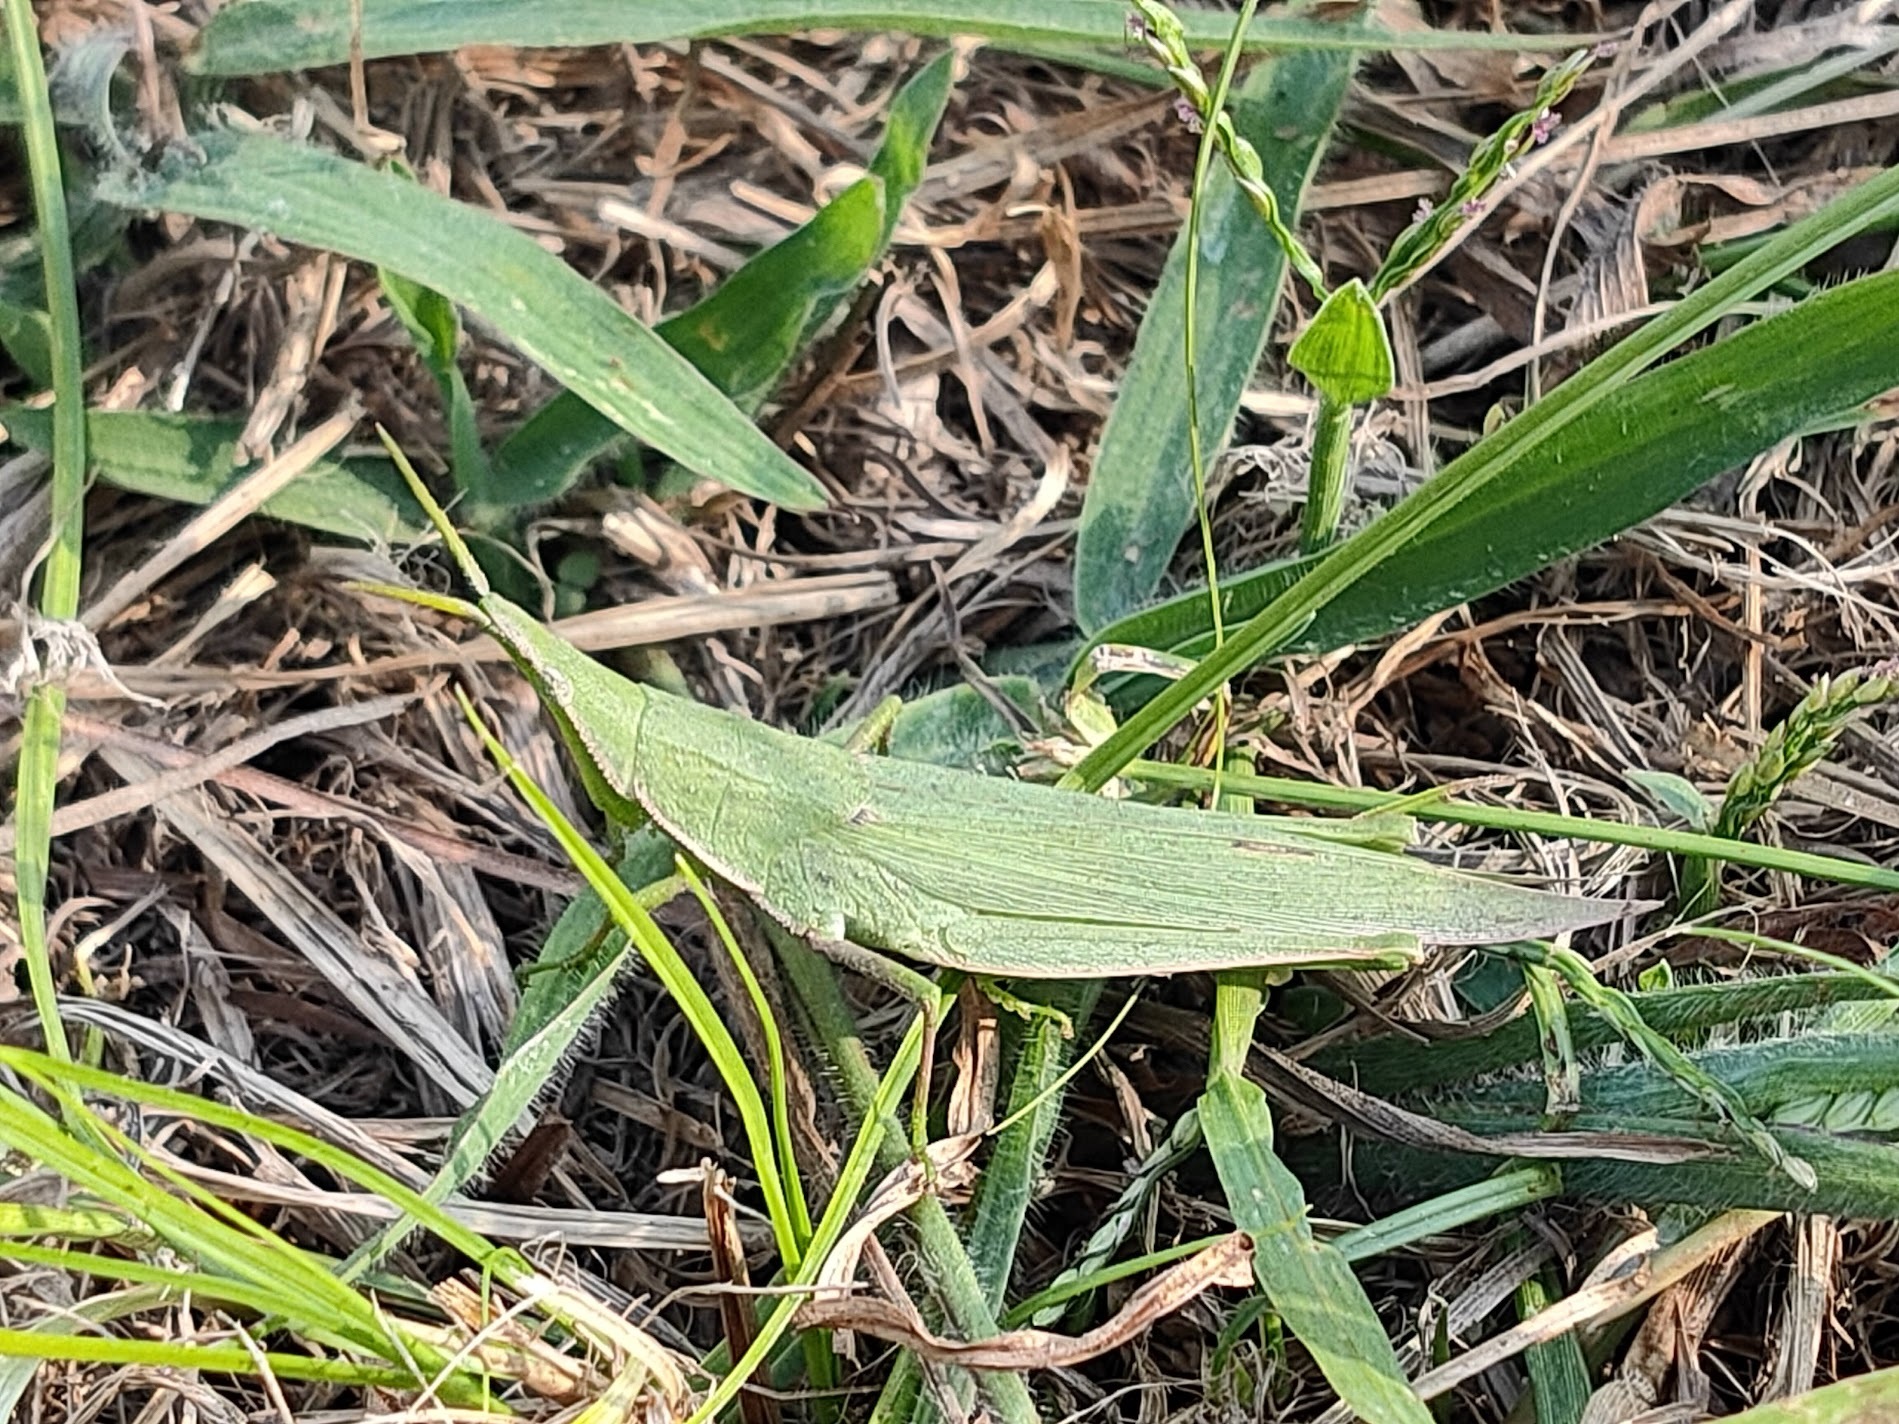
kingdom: Animalia
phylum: Arthropoda
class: Insecta
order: Orthoptera
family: Pyrgomorphidae
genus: Atractomorpha
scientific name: Atractomorpha lata
